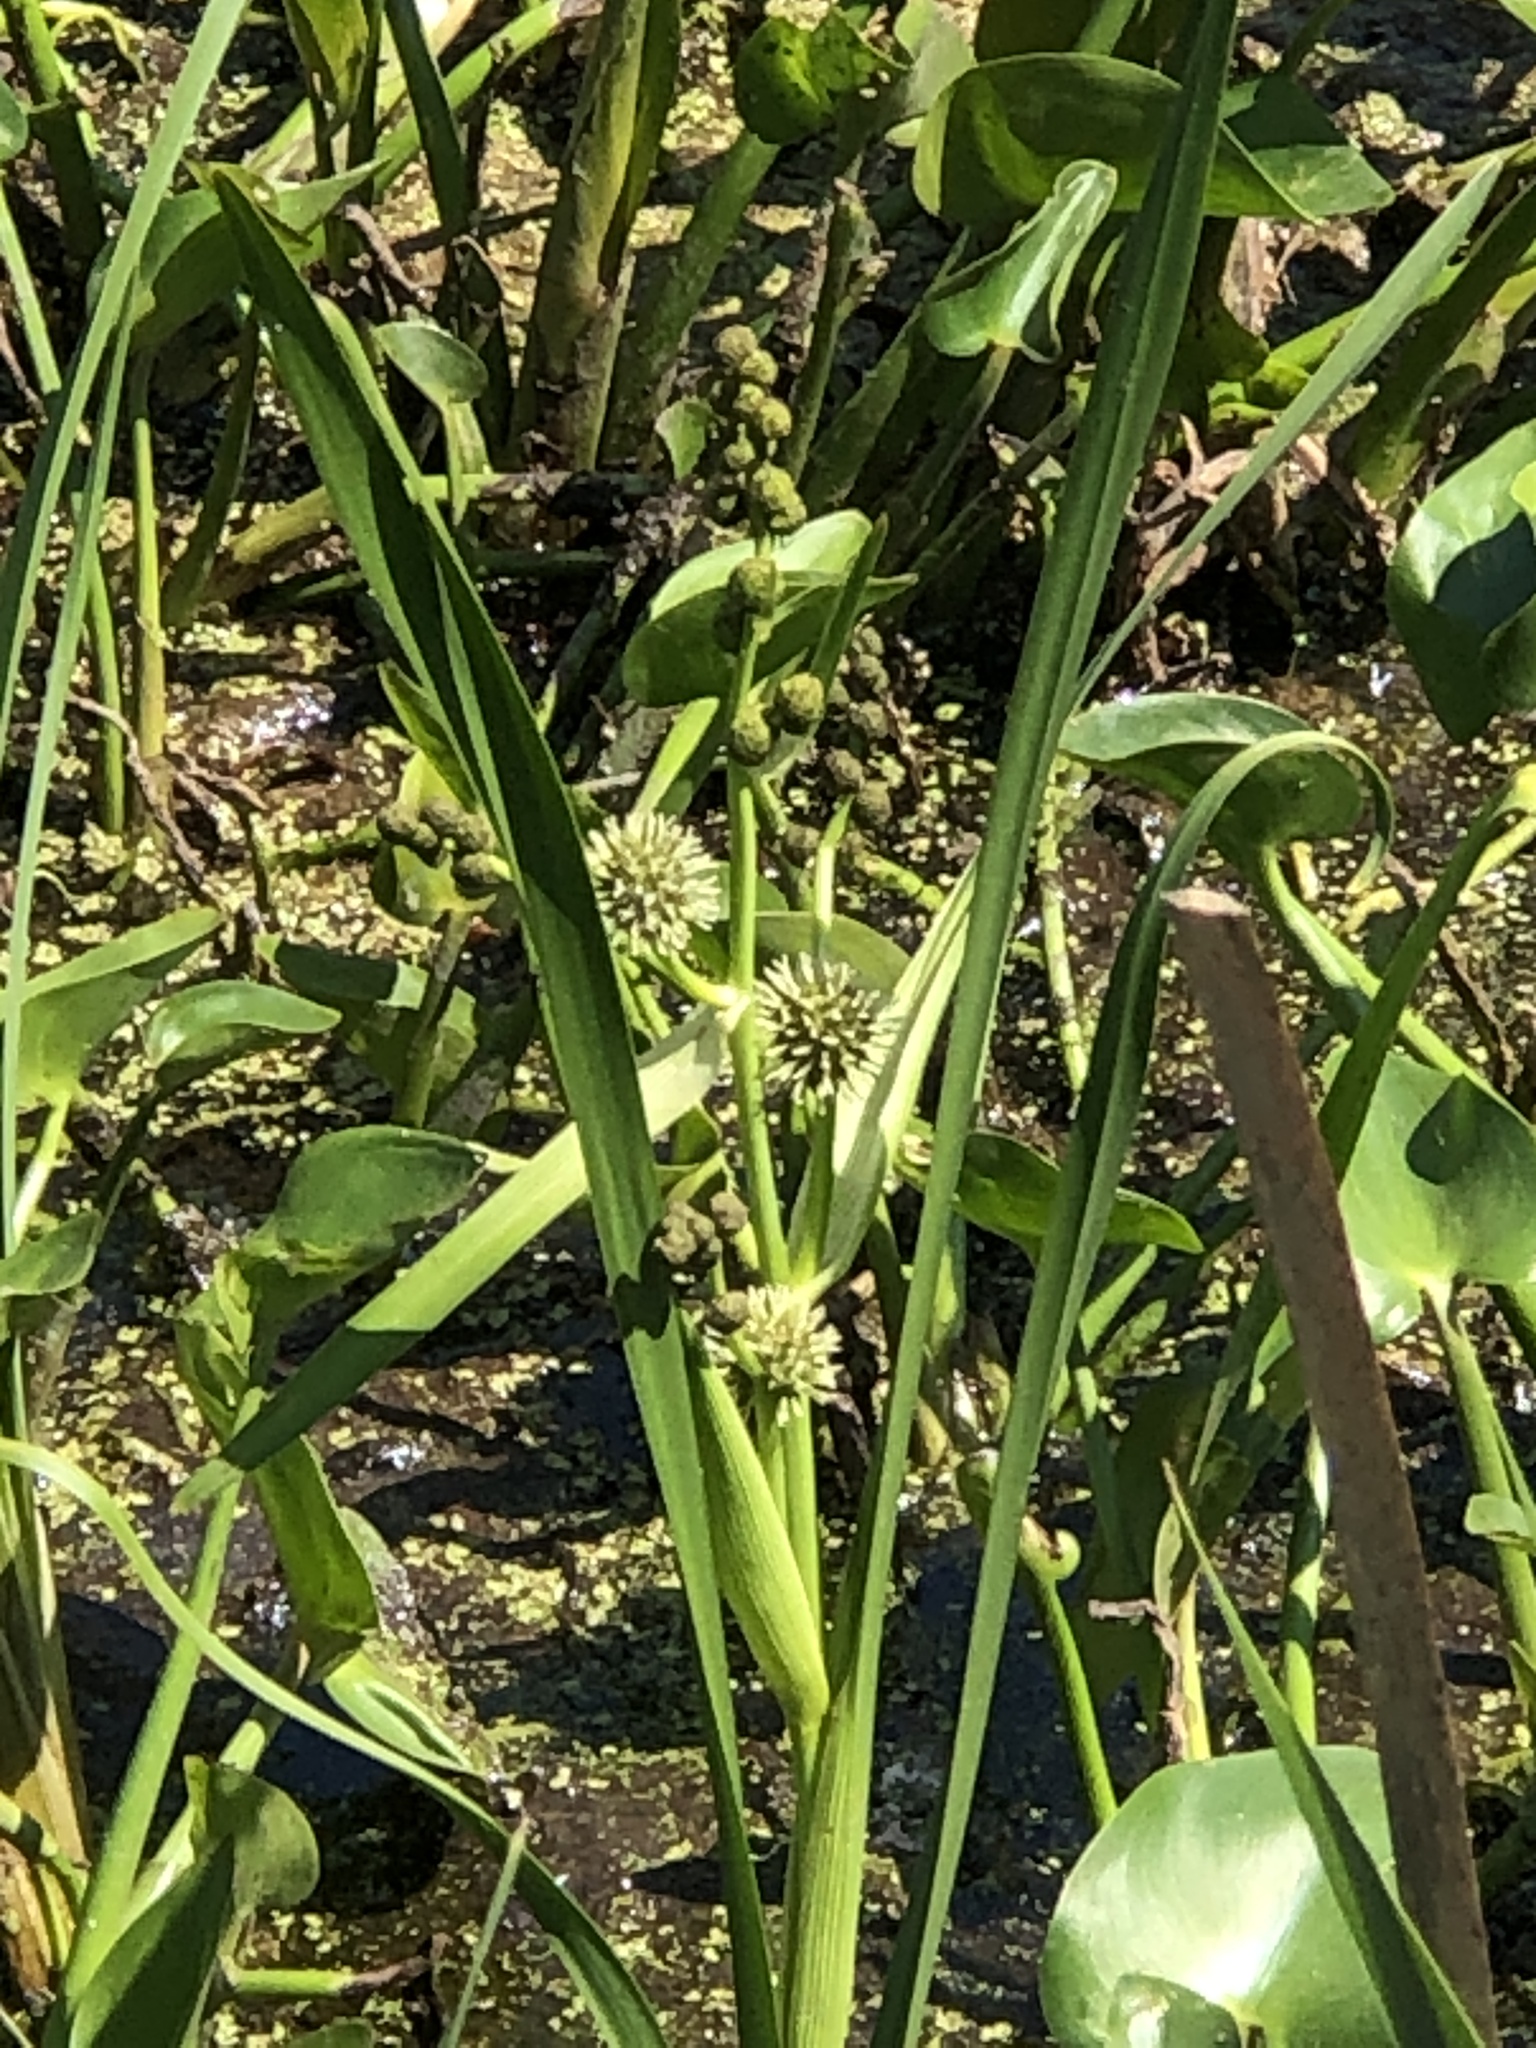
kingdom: Plantae
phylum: Tracheophyta
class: Liliopsida
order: Poales
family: Typhaceae
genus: Sparganium
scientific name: Sparganium eurycarpum
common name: Broad-fruited burreed
